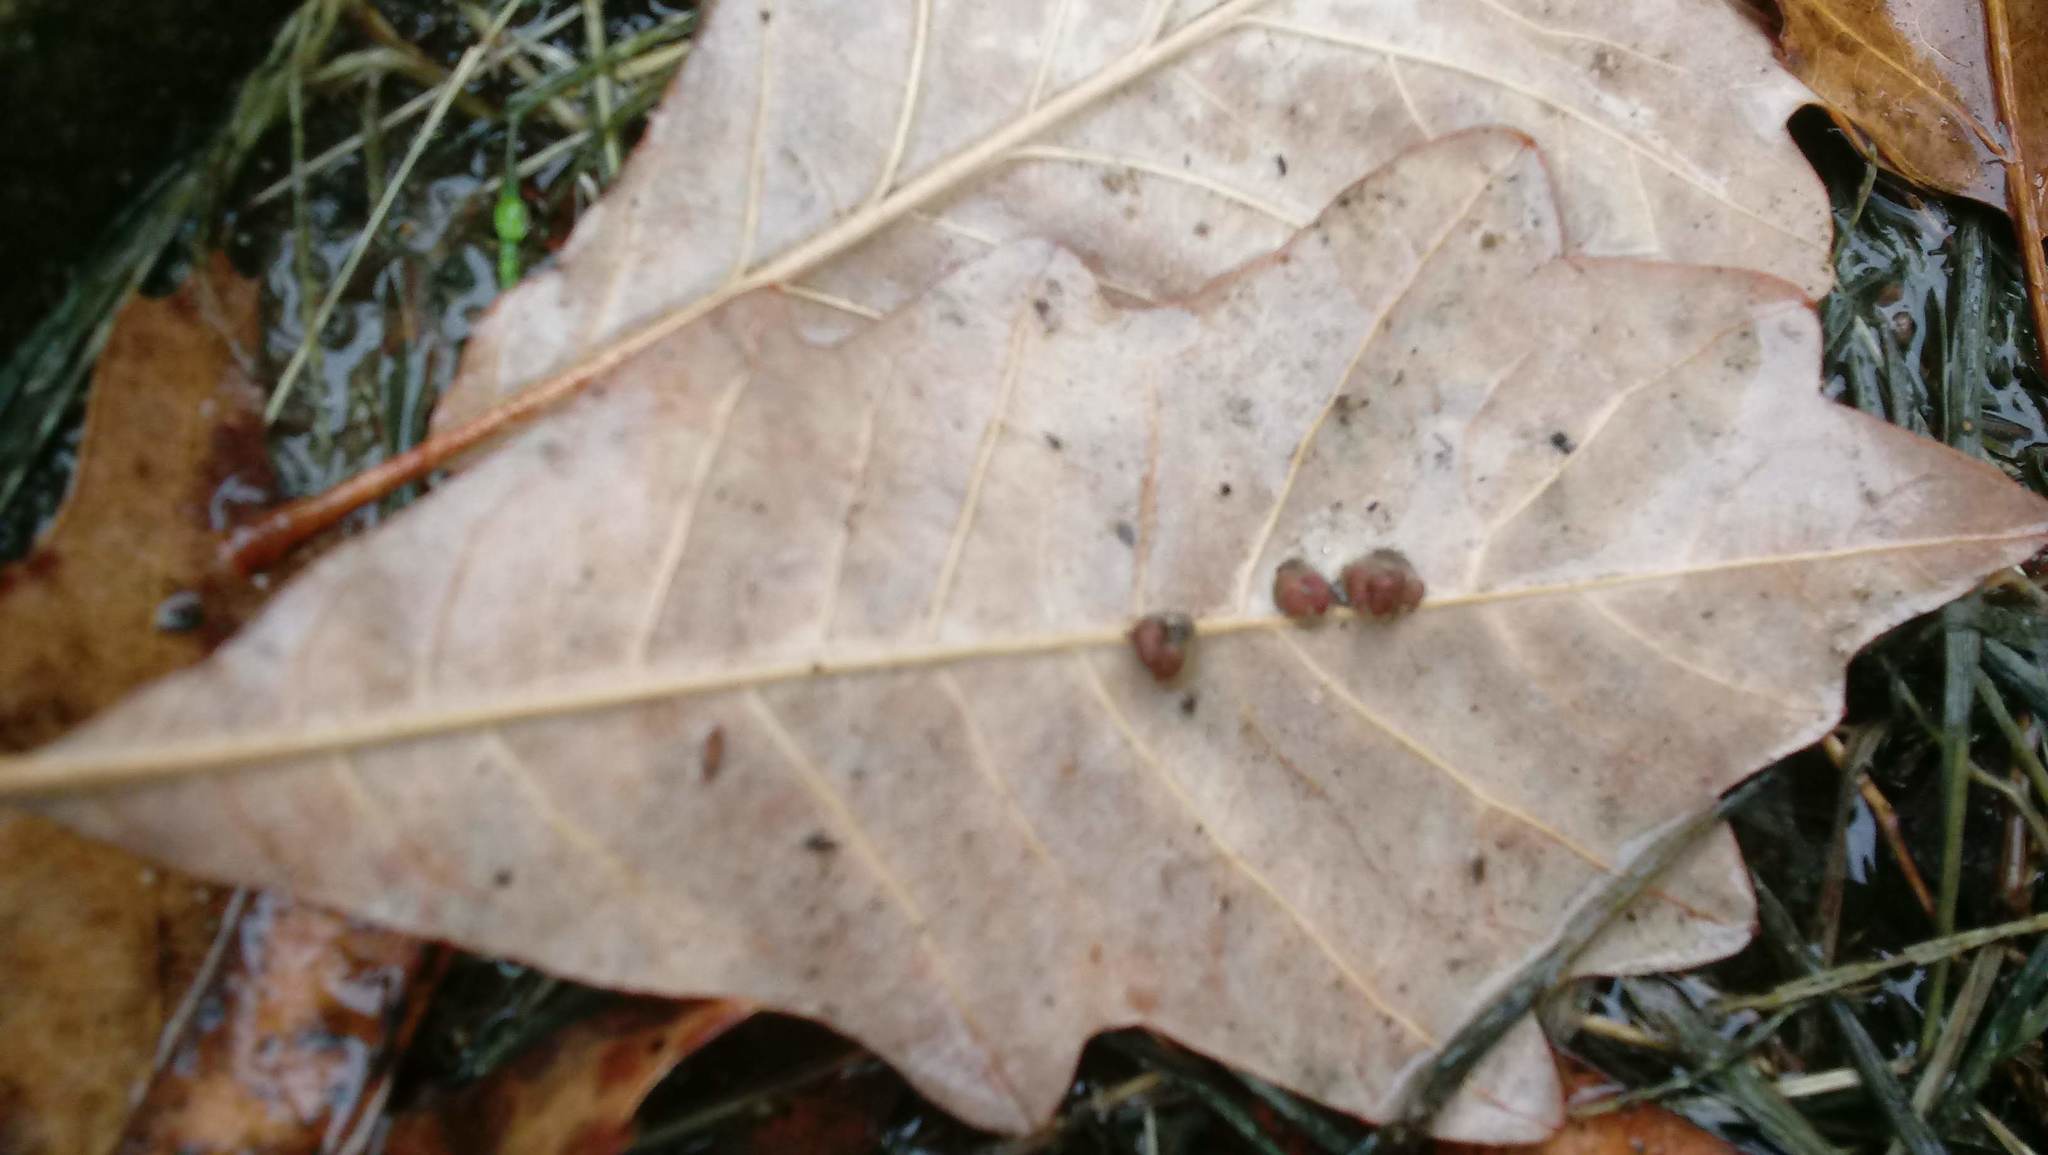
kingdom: Animalia
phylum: Arthropoda
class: Insecta
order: Hymenoptera
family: Cynipidae
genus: Andricus
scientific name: Andricus Druon ignotum
